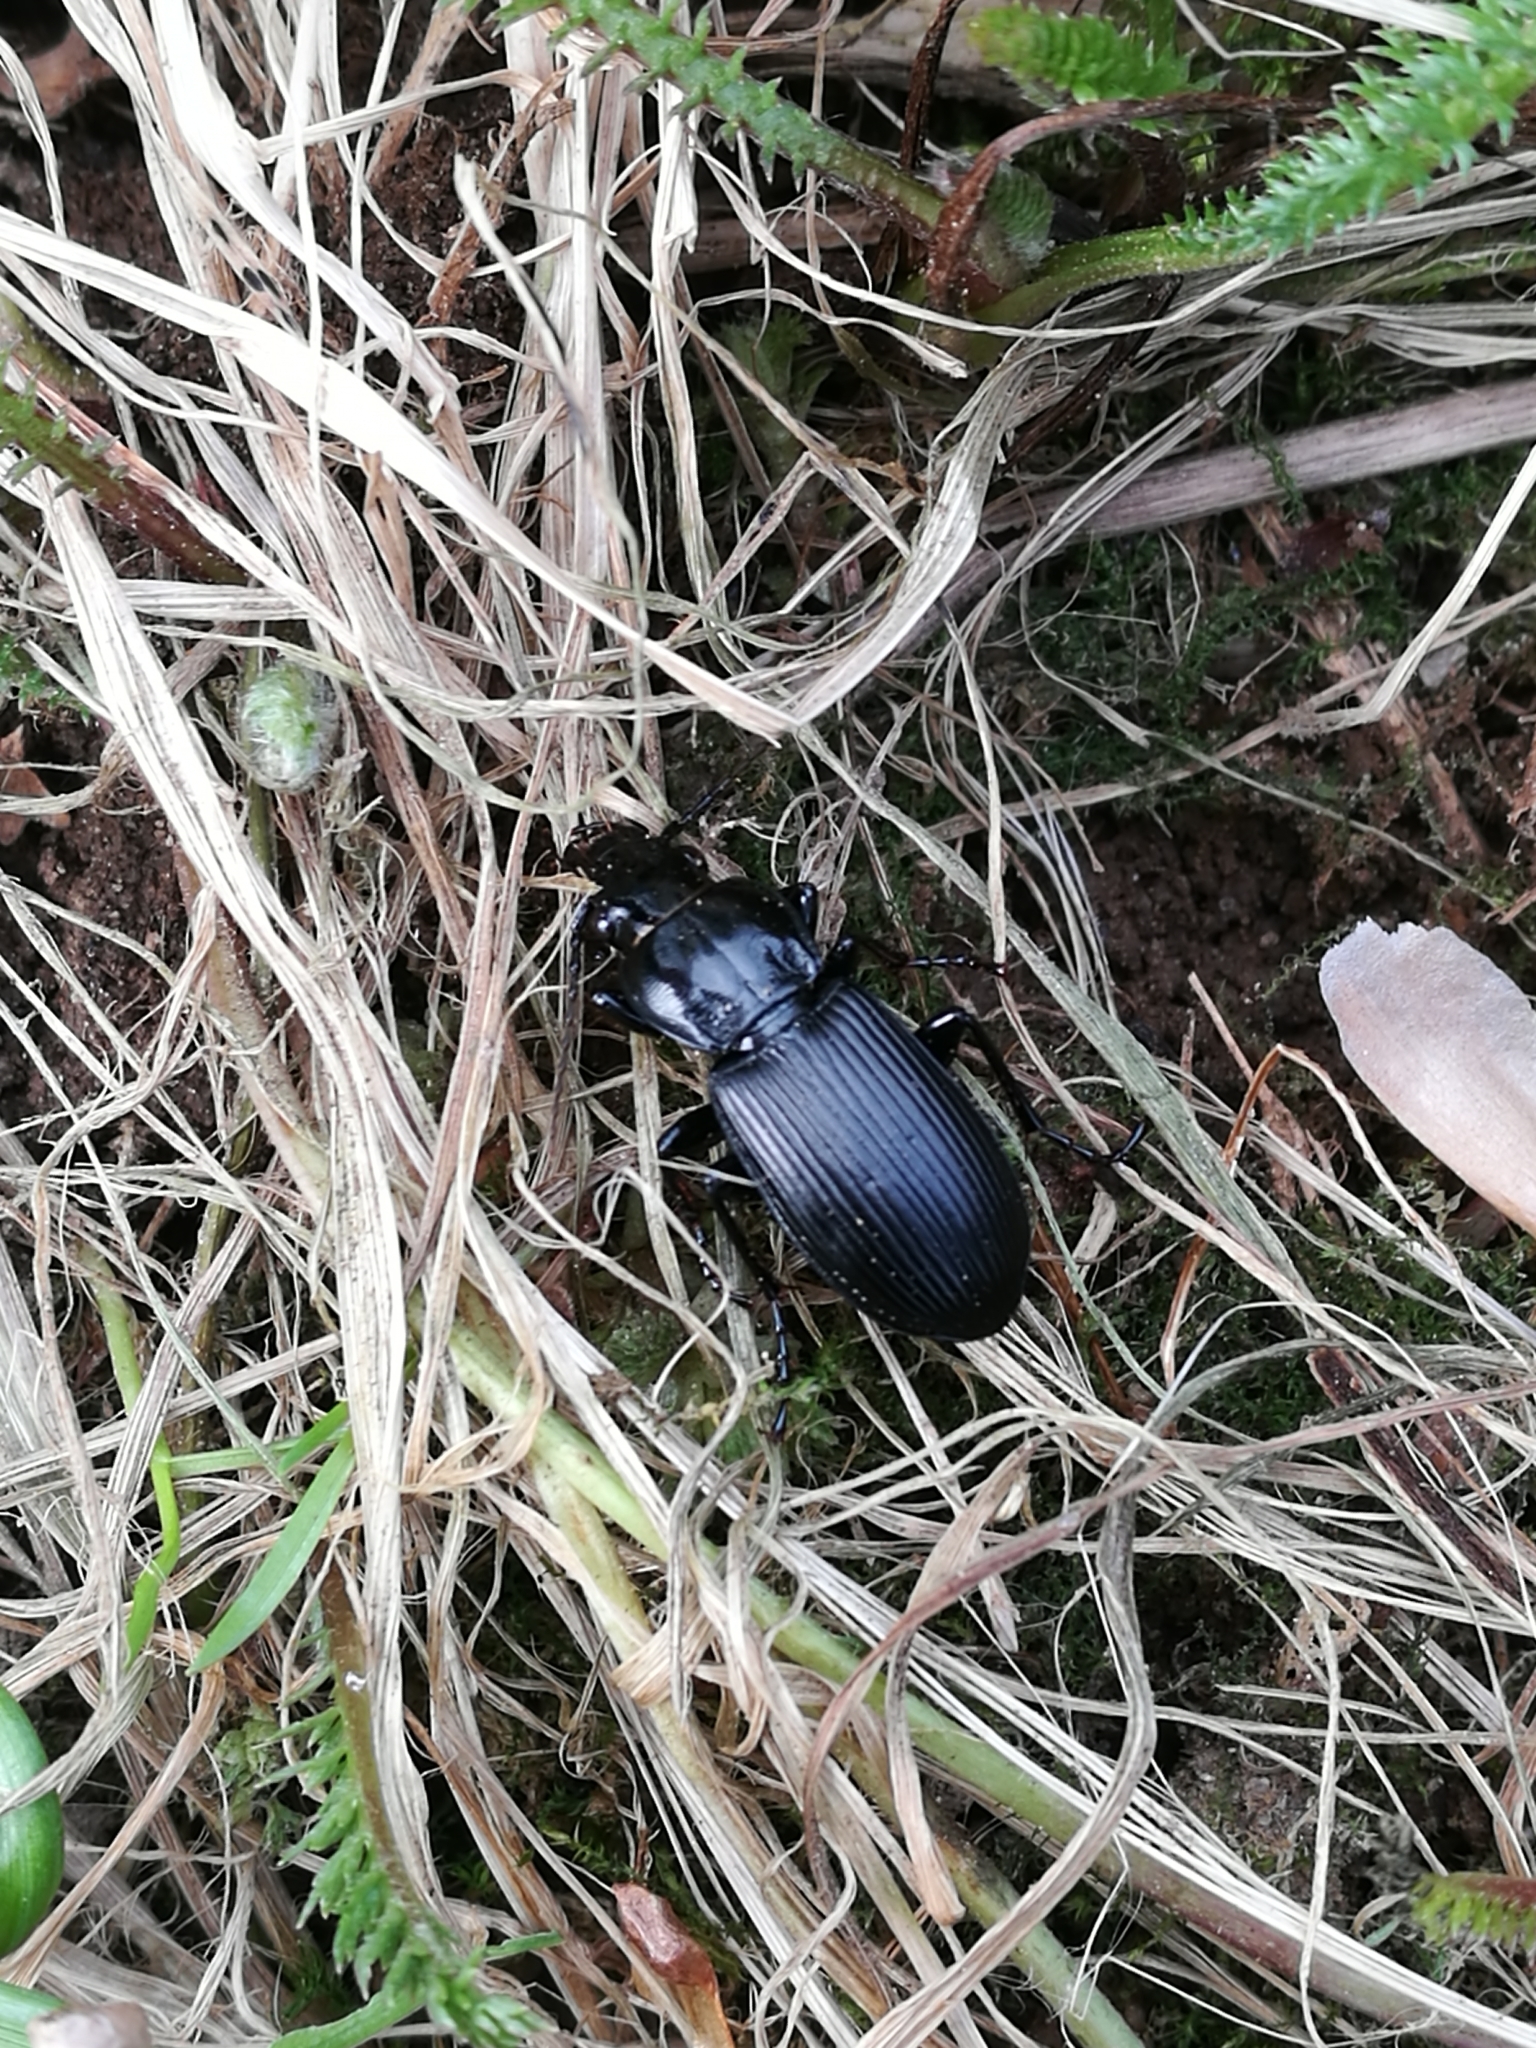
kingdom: Animalia
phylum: Arthropoda
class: Insecta
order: Coleoptera
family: Carabidae
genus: Pterostichus
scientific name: Pterostichus melanarius
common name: European dark harp ground beetle
